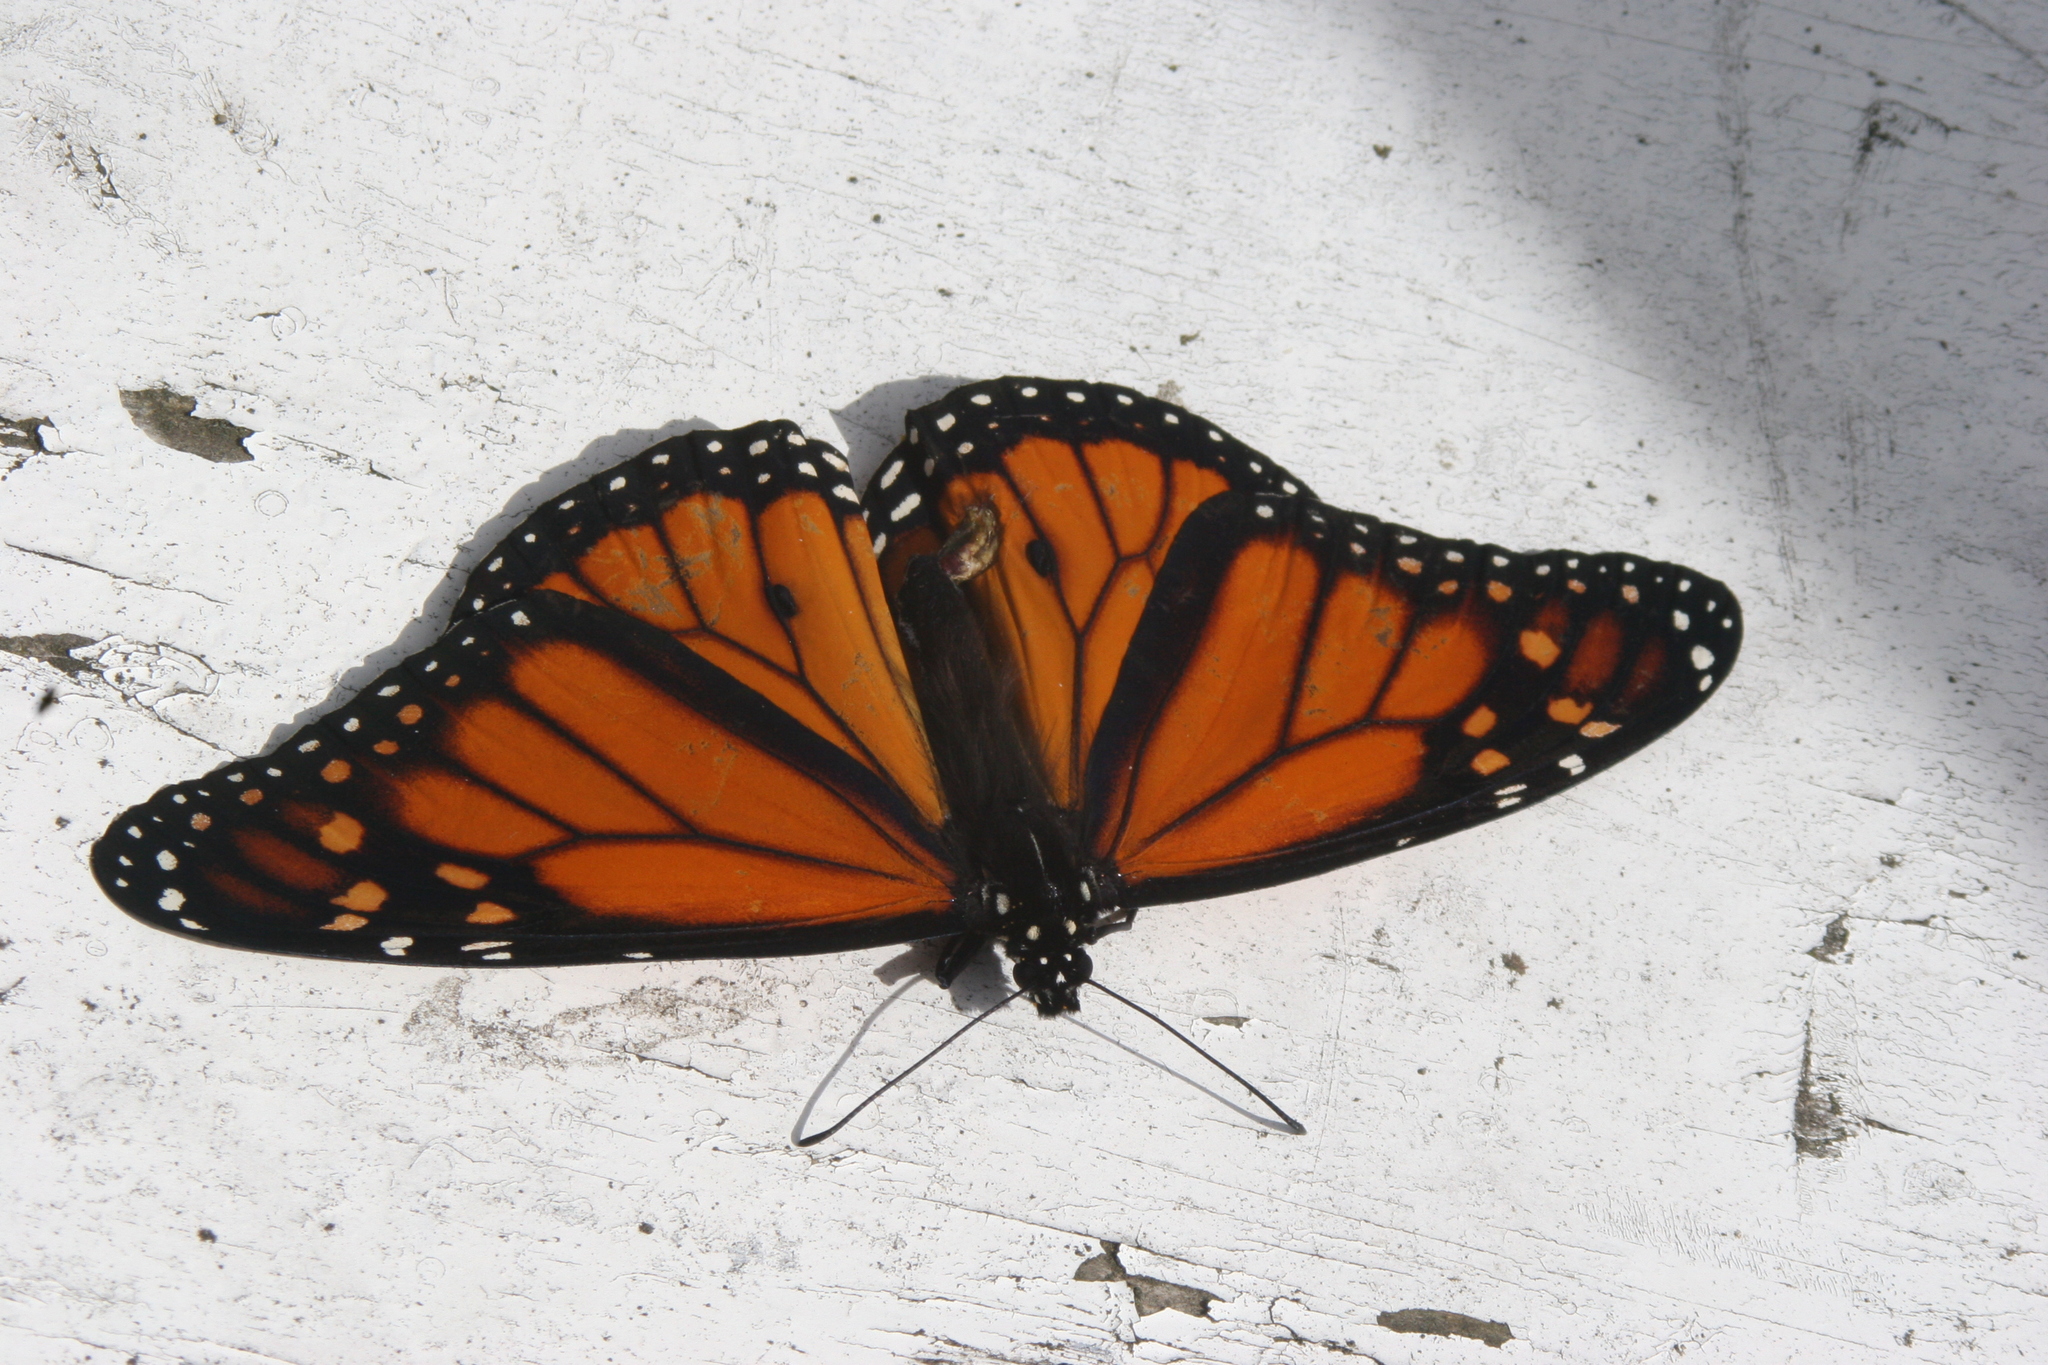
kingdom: Animalia
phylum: Arthropoda
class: Insecta
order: Lepidoptera
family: Nymphalidae
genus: Danaus
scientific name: Danaus plexippus
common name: Monarch
